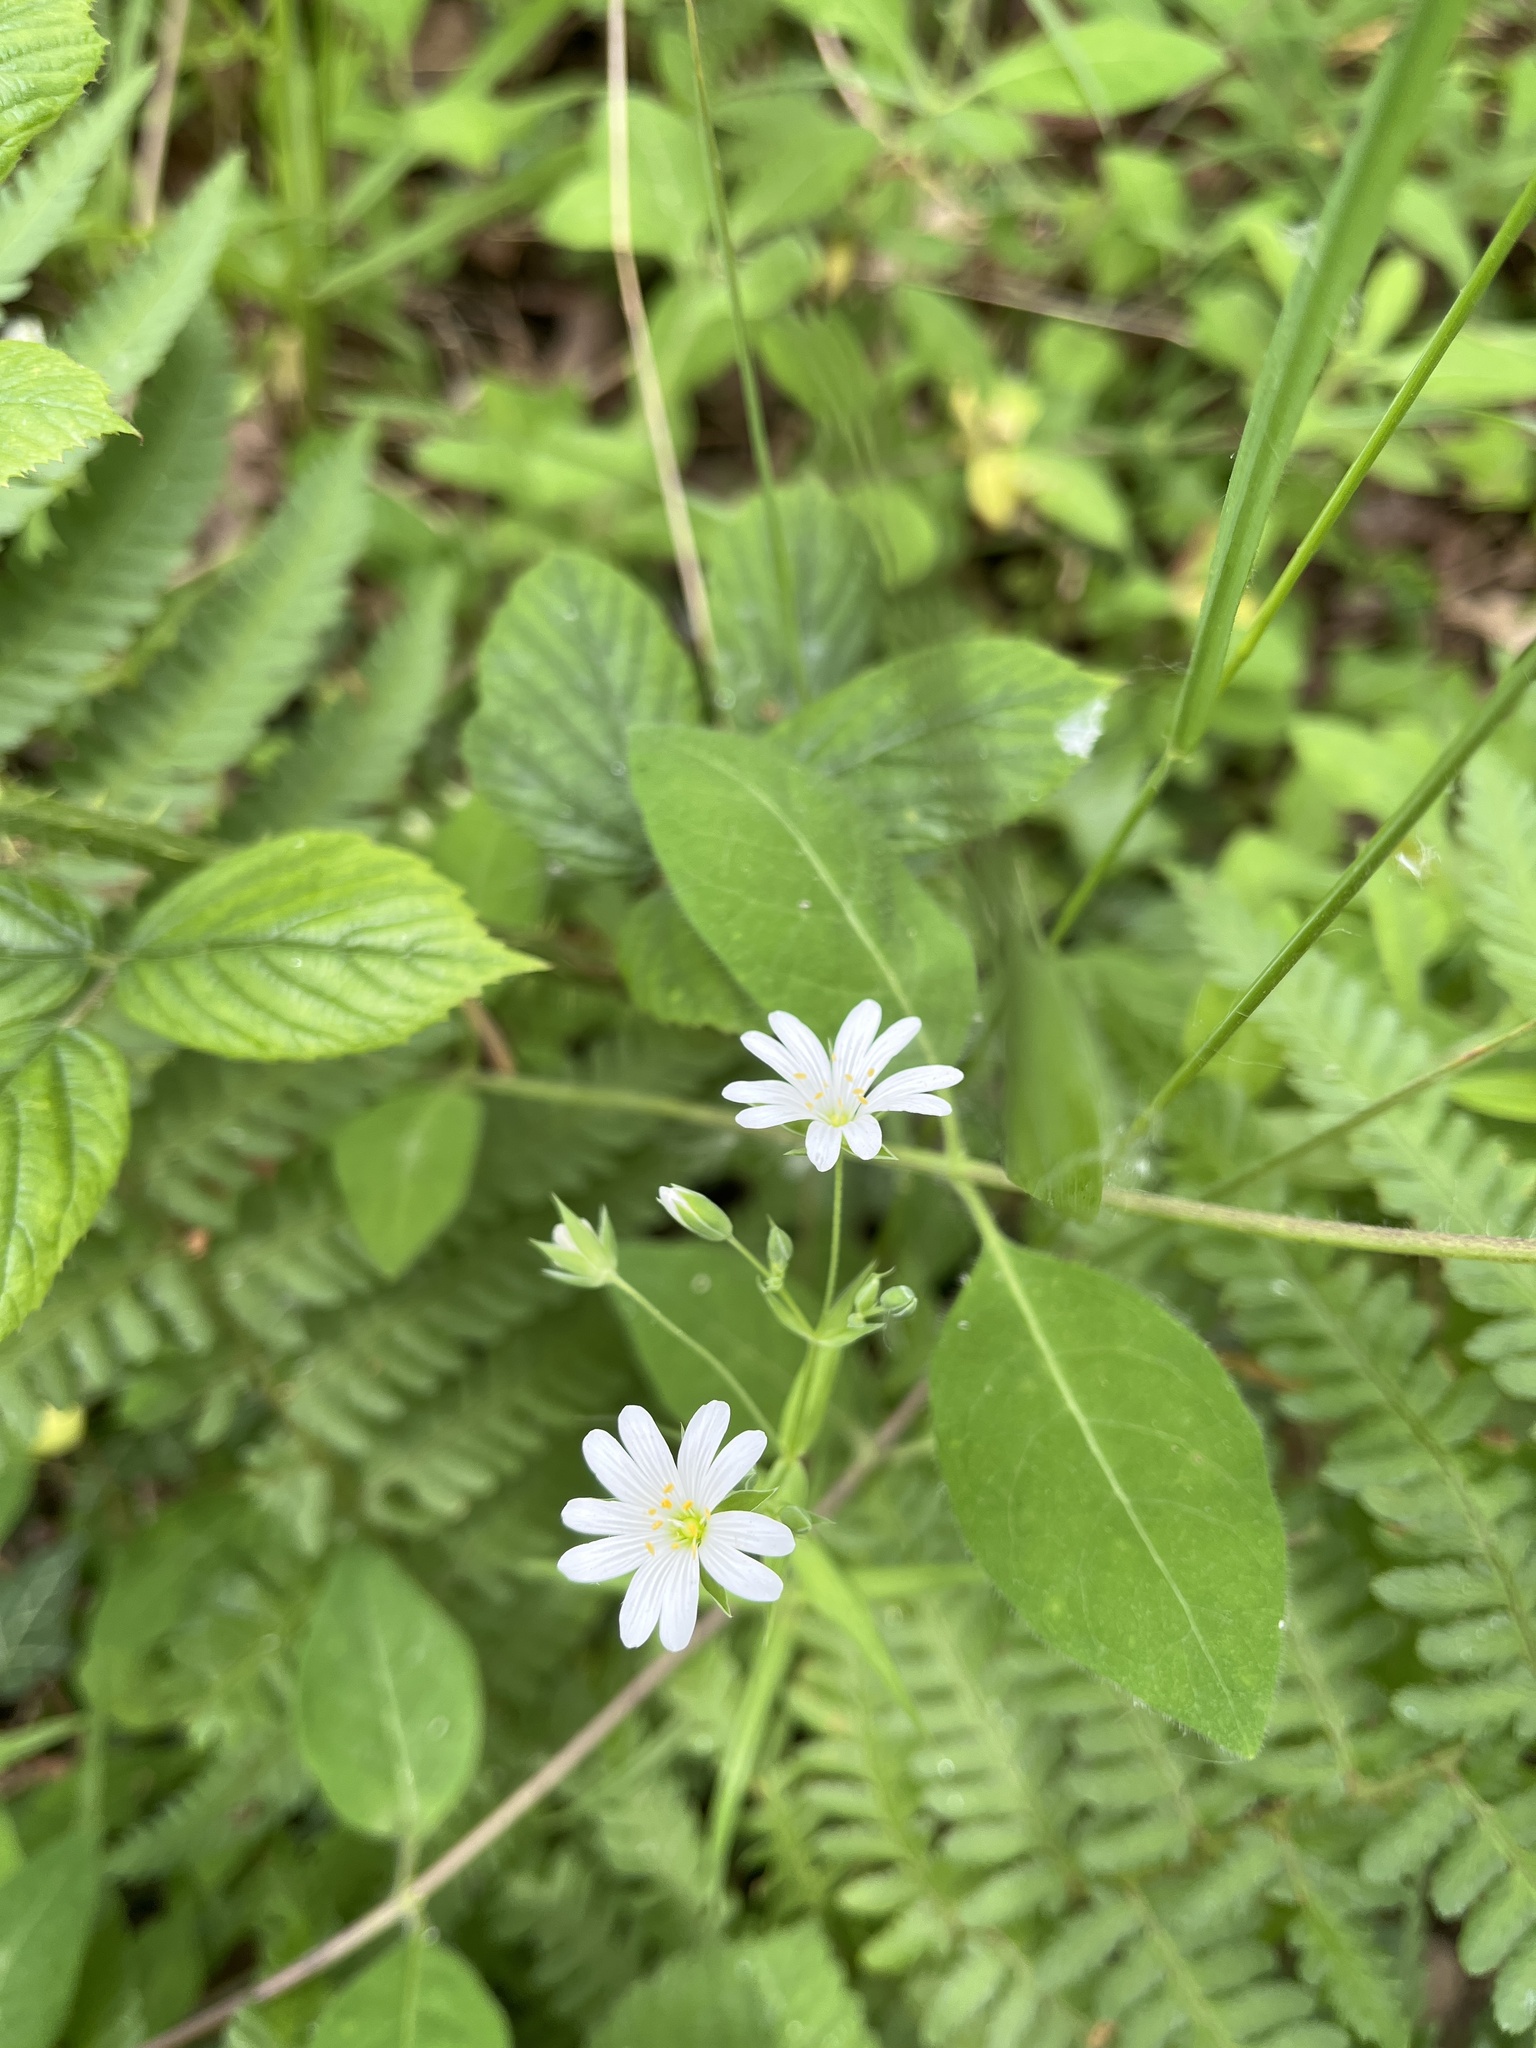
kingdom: Plantae
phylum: Tracheophyta
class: Magnoliopsida
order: Caryophyllales
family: Caryophyllaceae
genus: Rabelera
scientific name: Rabelera holostea
